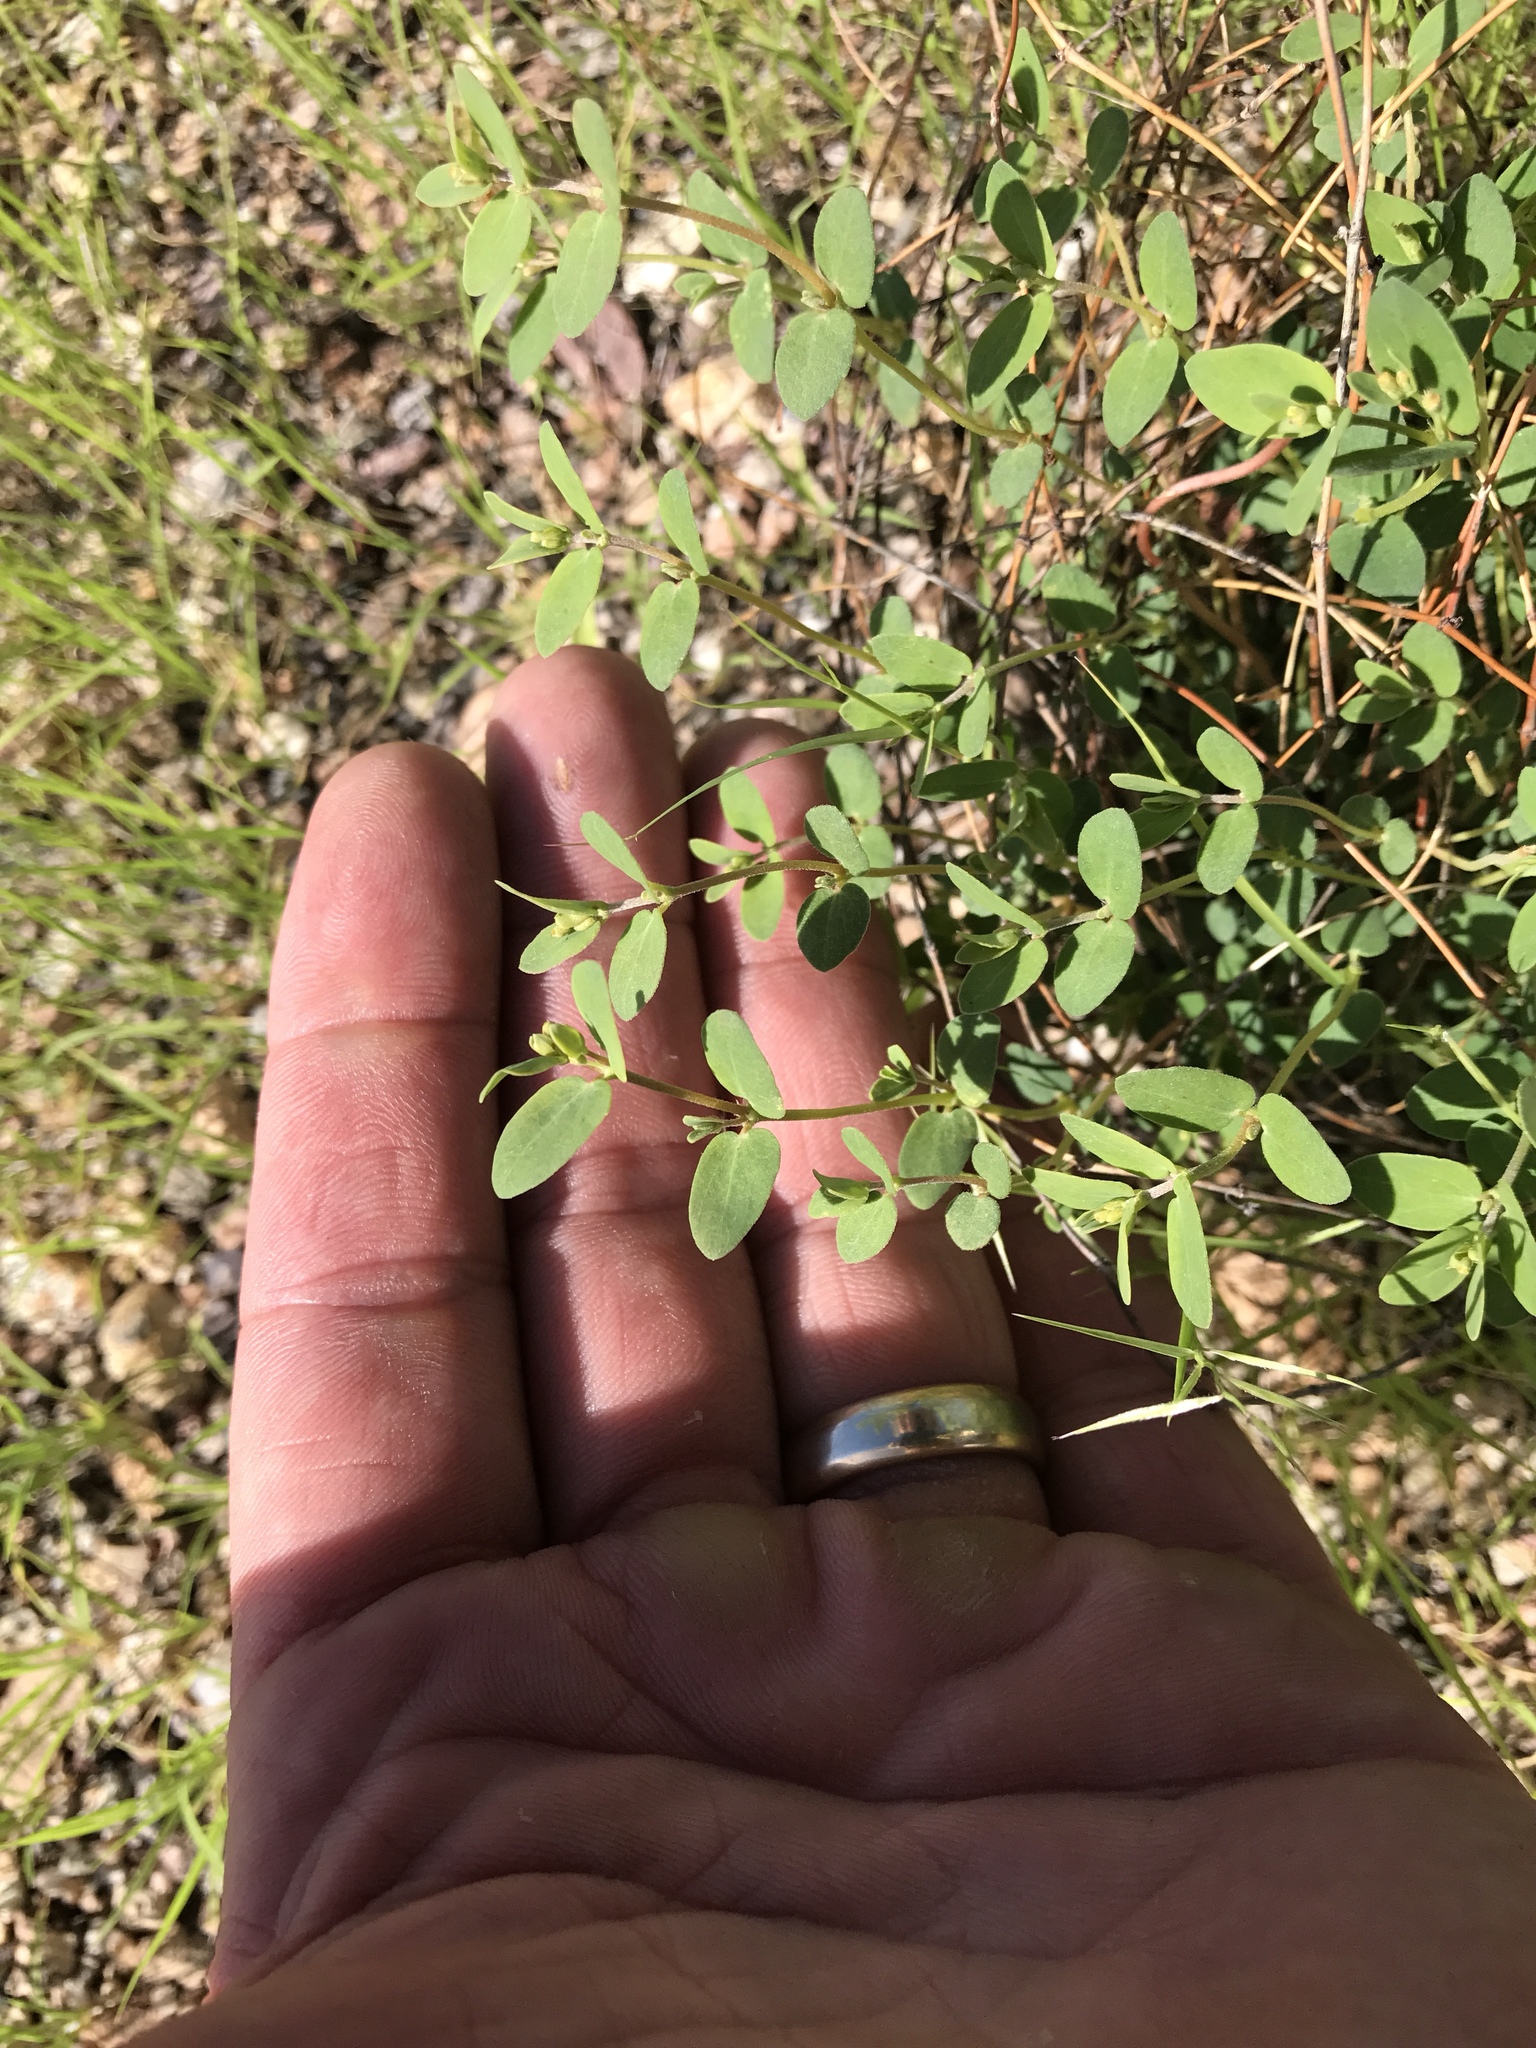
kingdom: Plantae
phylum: Tracheophyta
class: Magnoliopsida
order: Malpighiales
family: Euphorbiaceae
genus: Euphorbia
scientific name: Euphorbia capitellata
